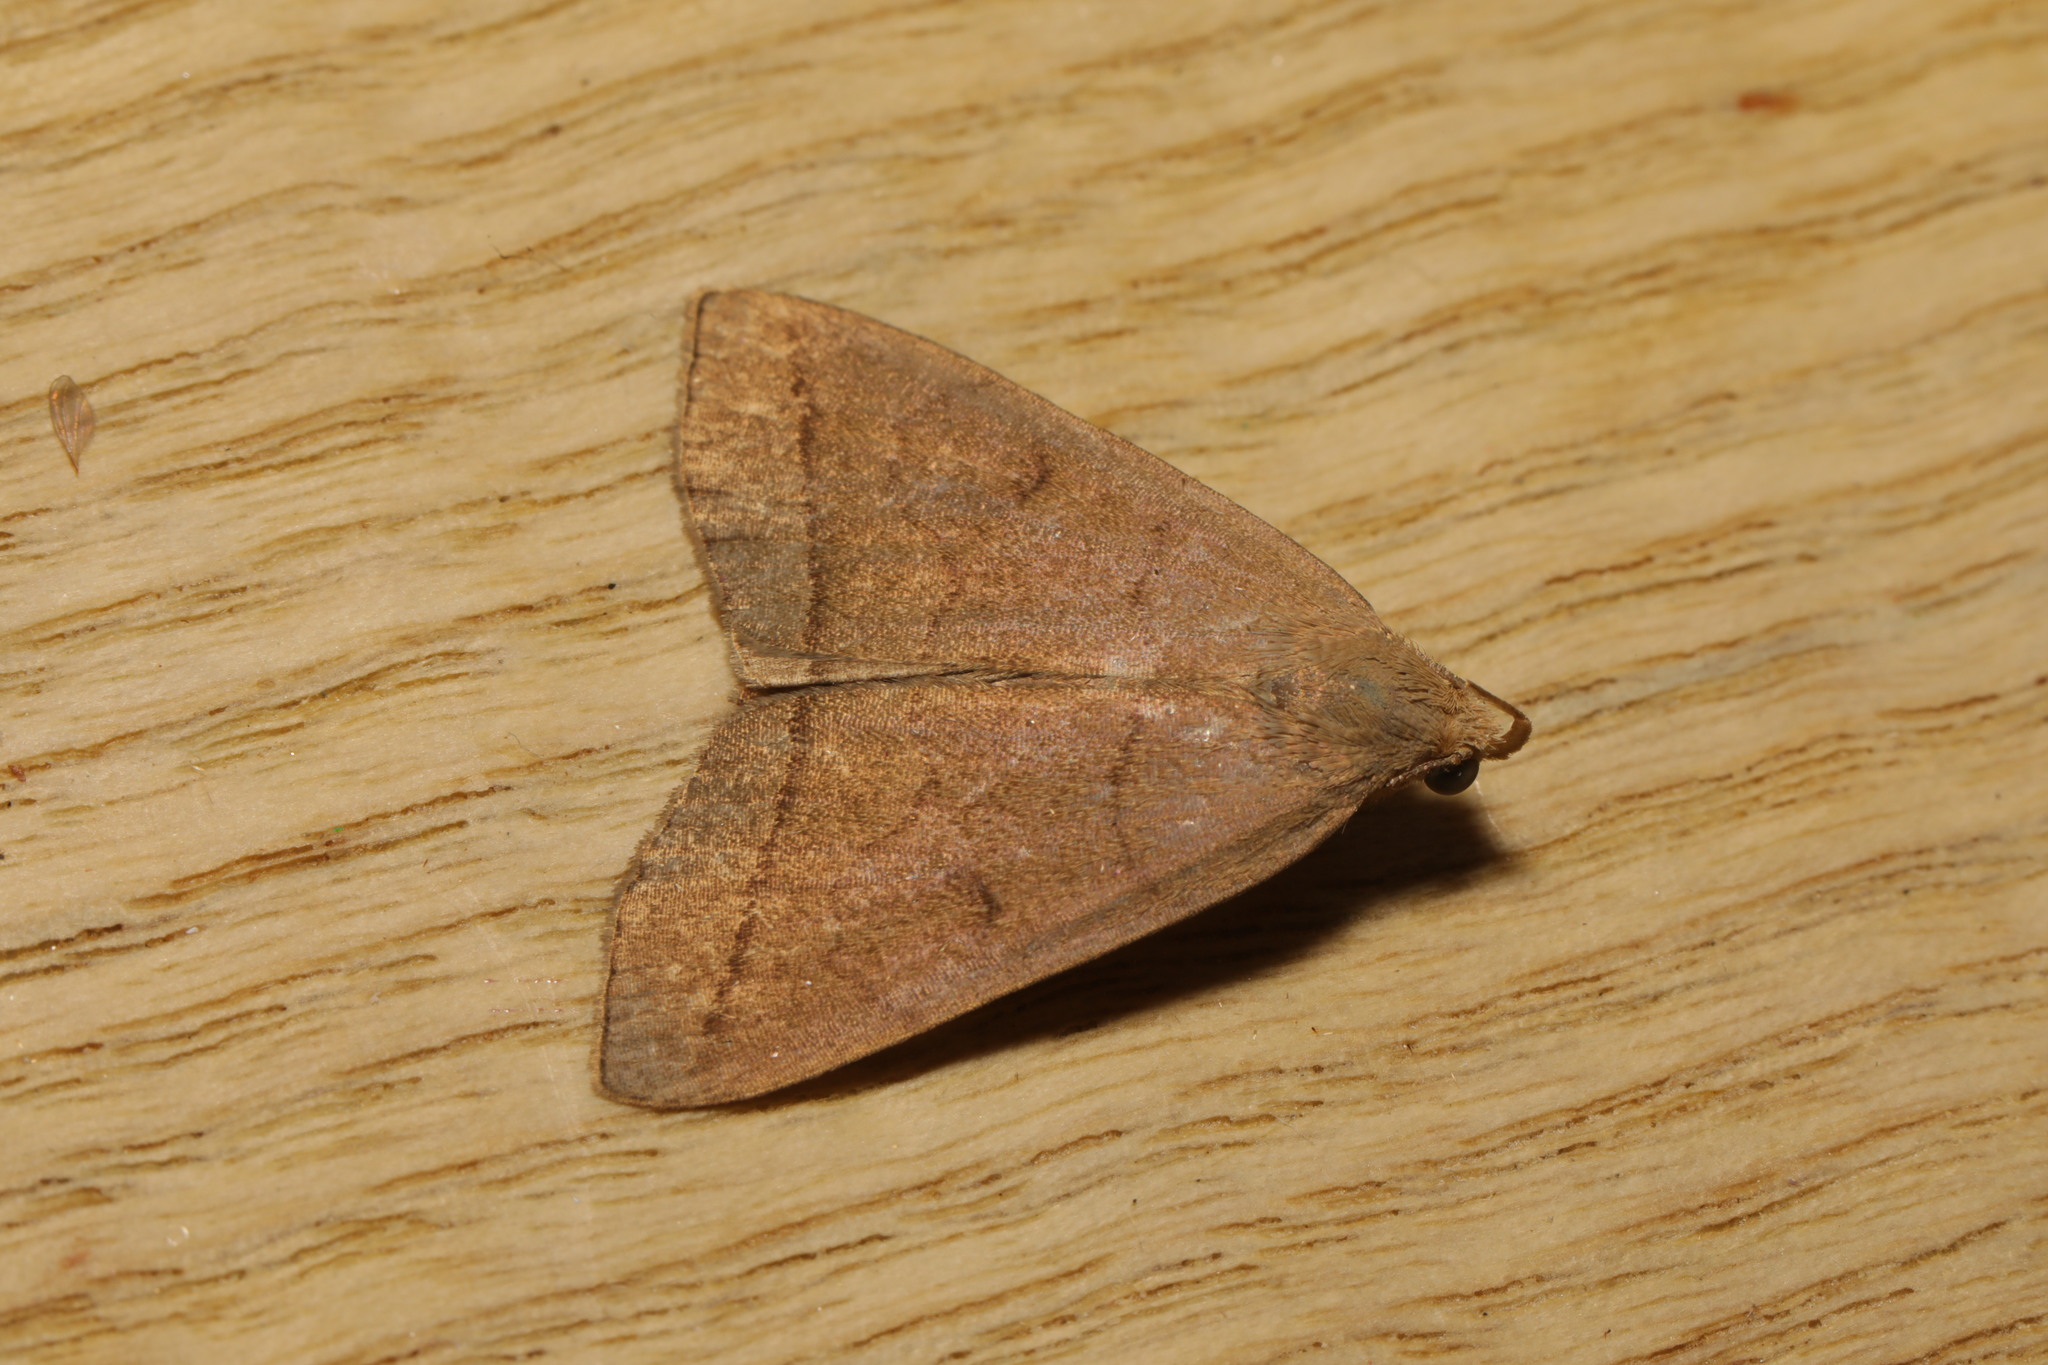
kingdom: Animalia
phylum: Arthropoda
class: Insecta
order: Lepidoptera
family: Erebidae
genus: Herminia
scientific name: Herminia tarsipennalis
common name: Fan-foot
